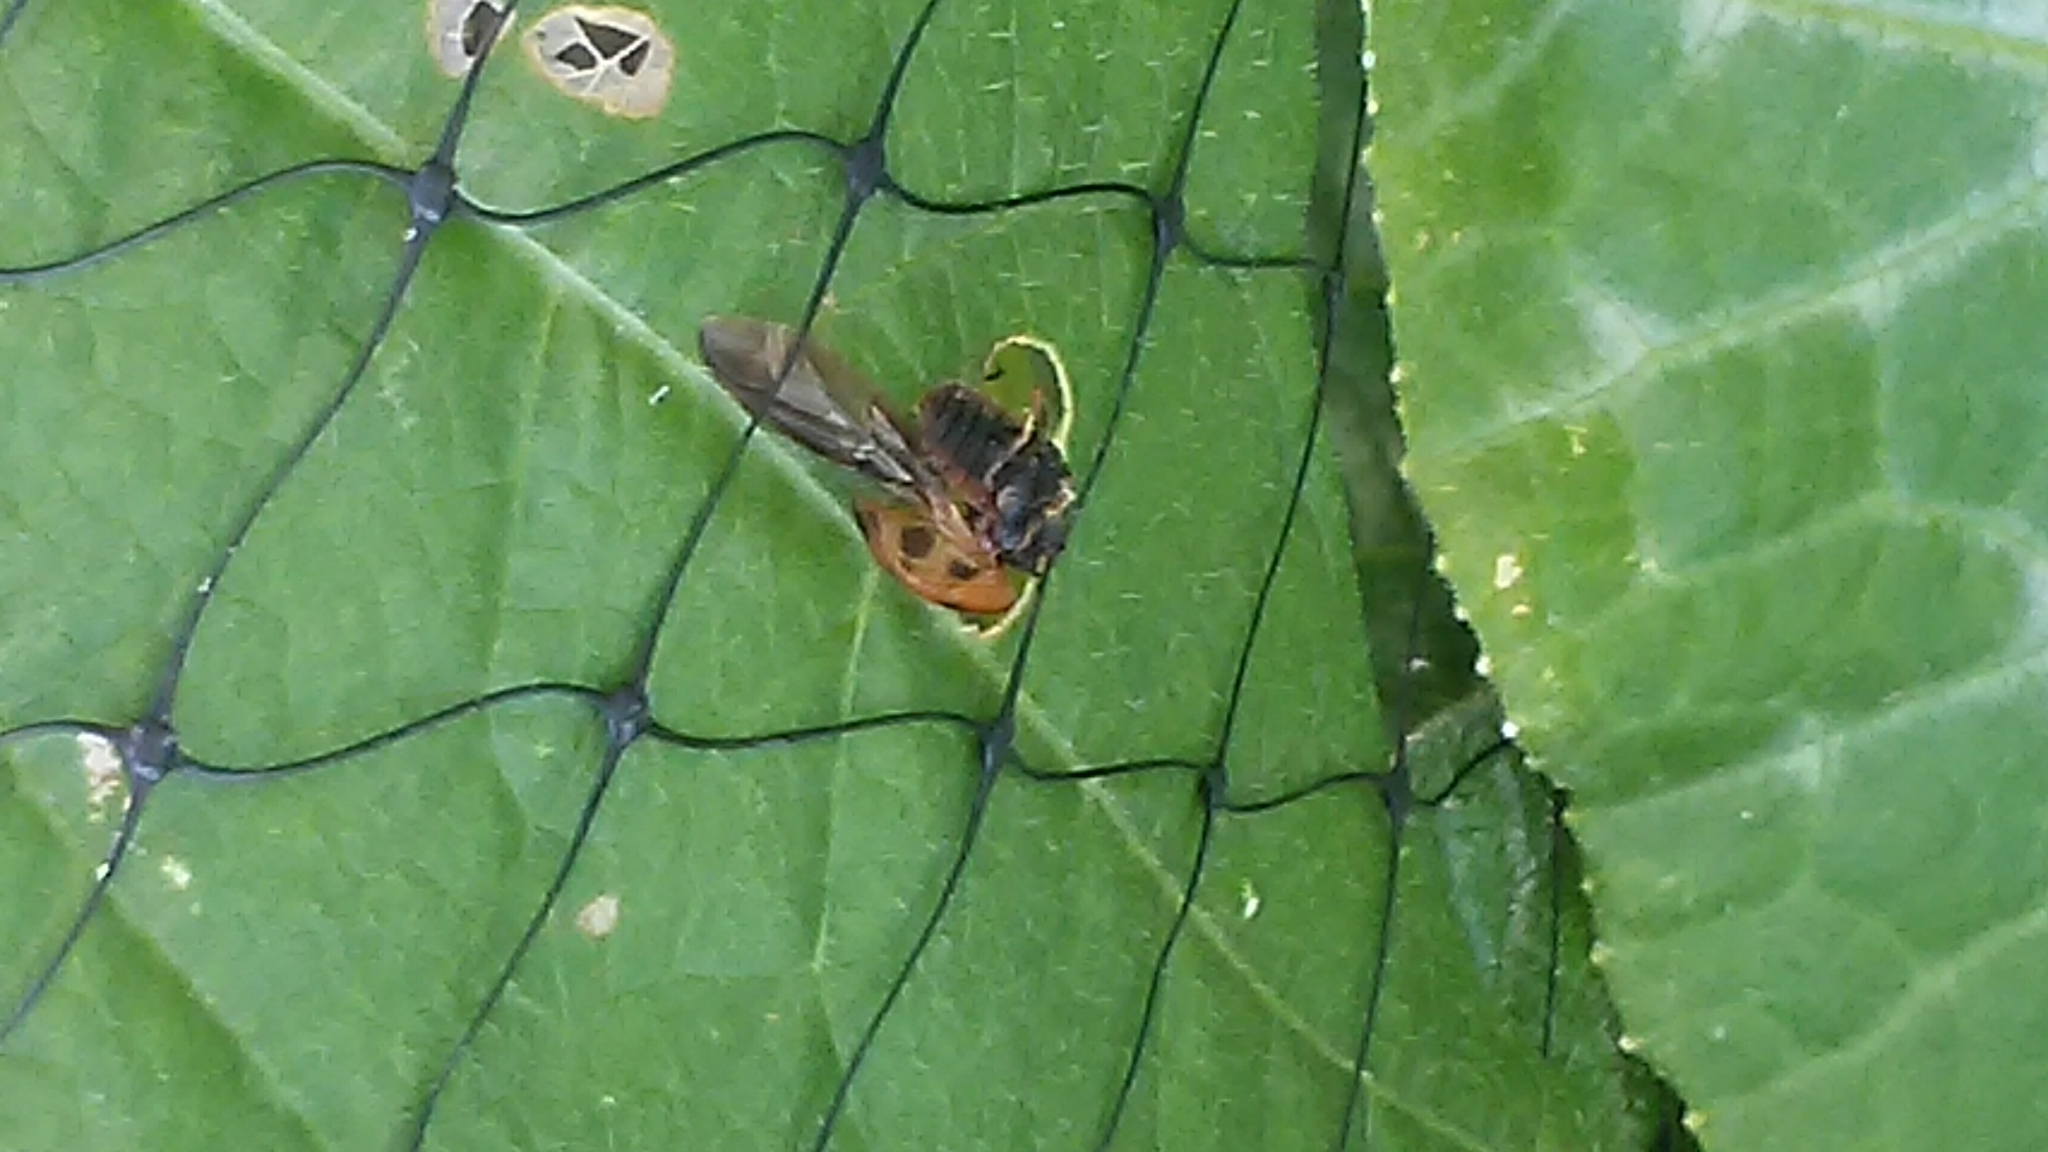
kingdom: Animalia
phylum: Arthropoda
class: Insecta
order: Coleoptera
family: Coccinellidae
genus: Harmonia
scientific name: Harmonia axyridis
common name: Harlequin ladybird
